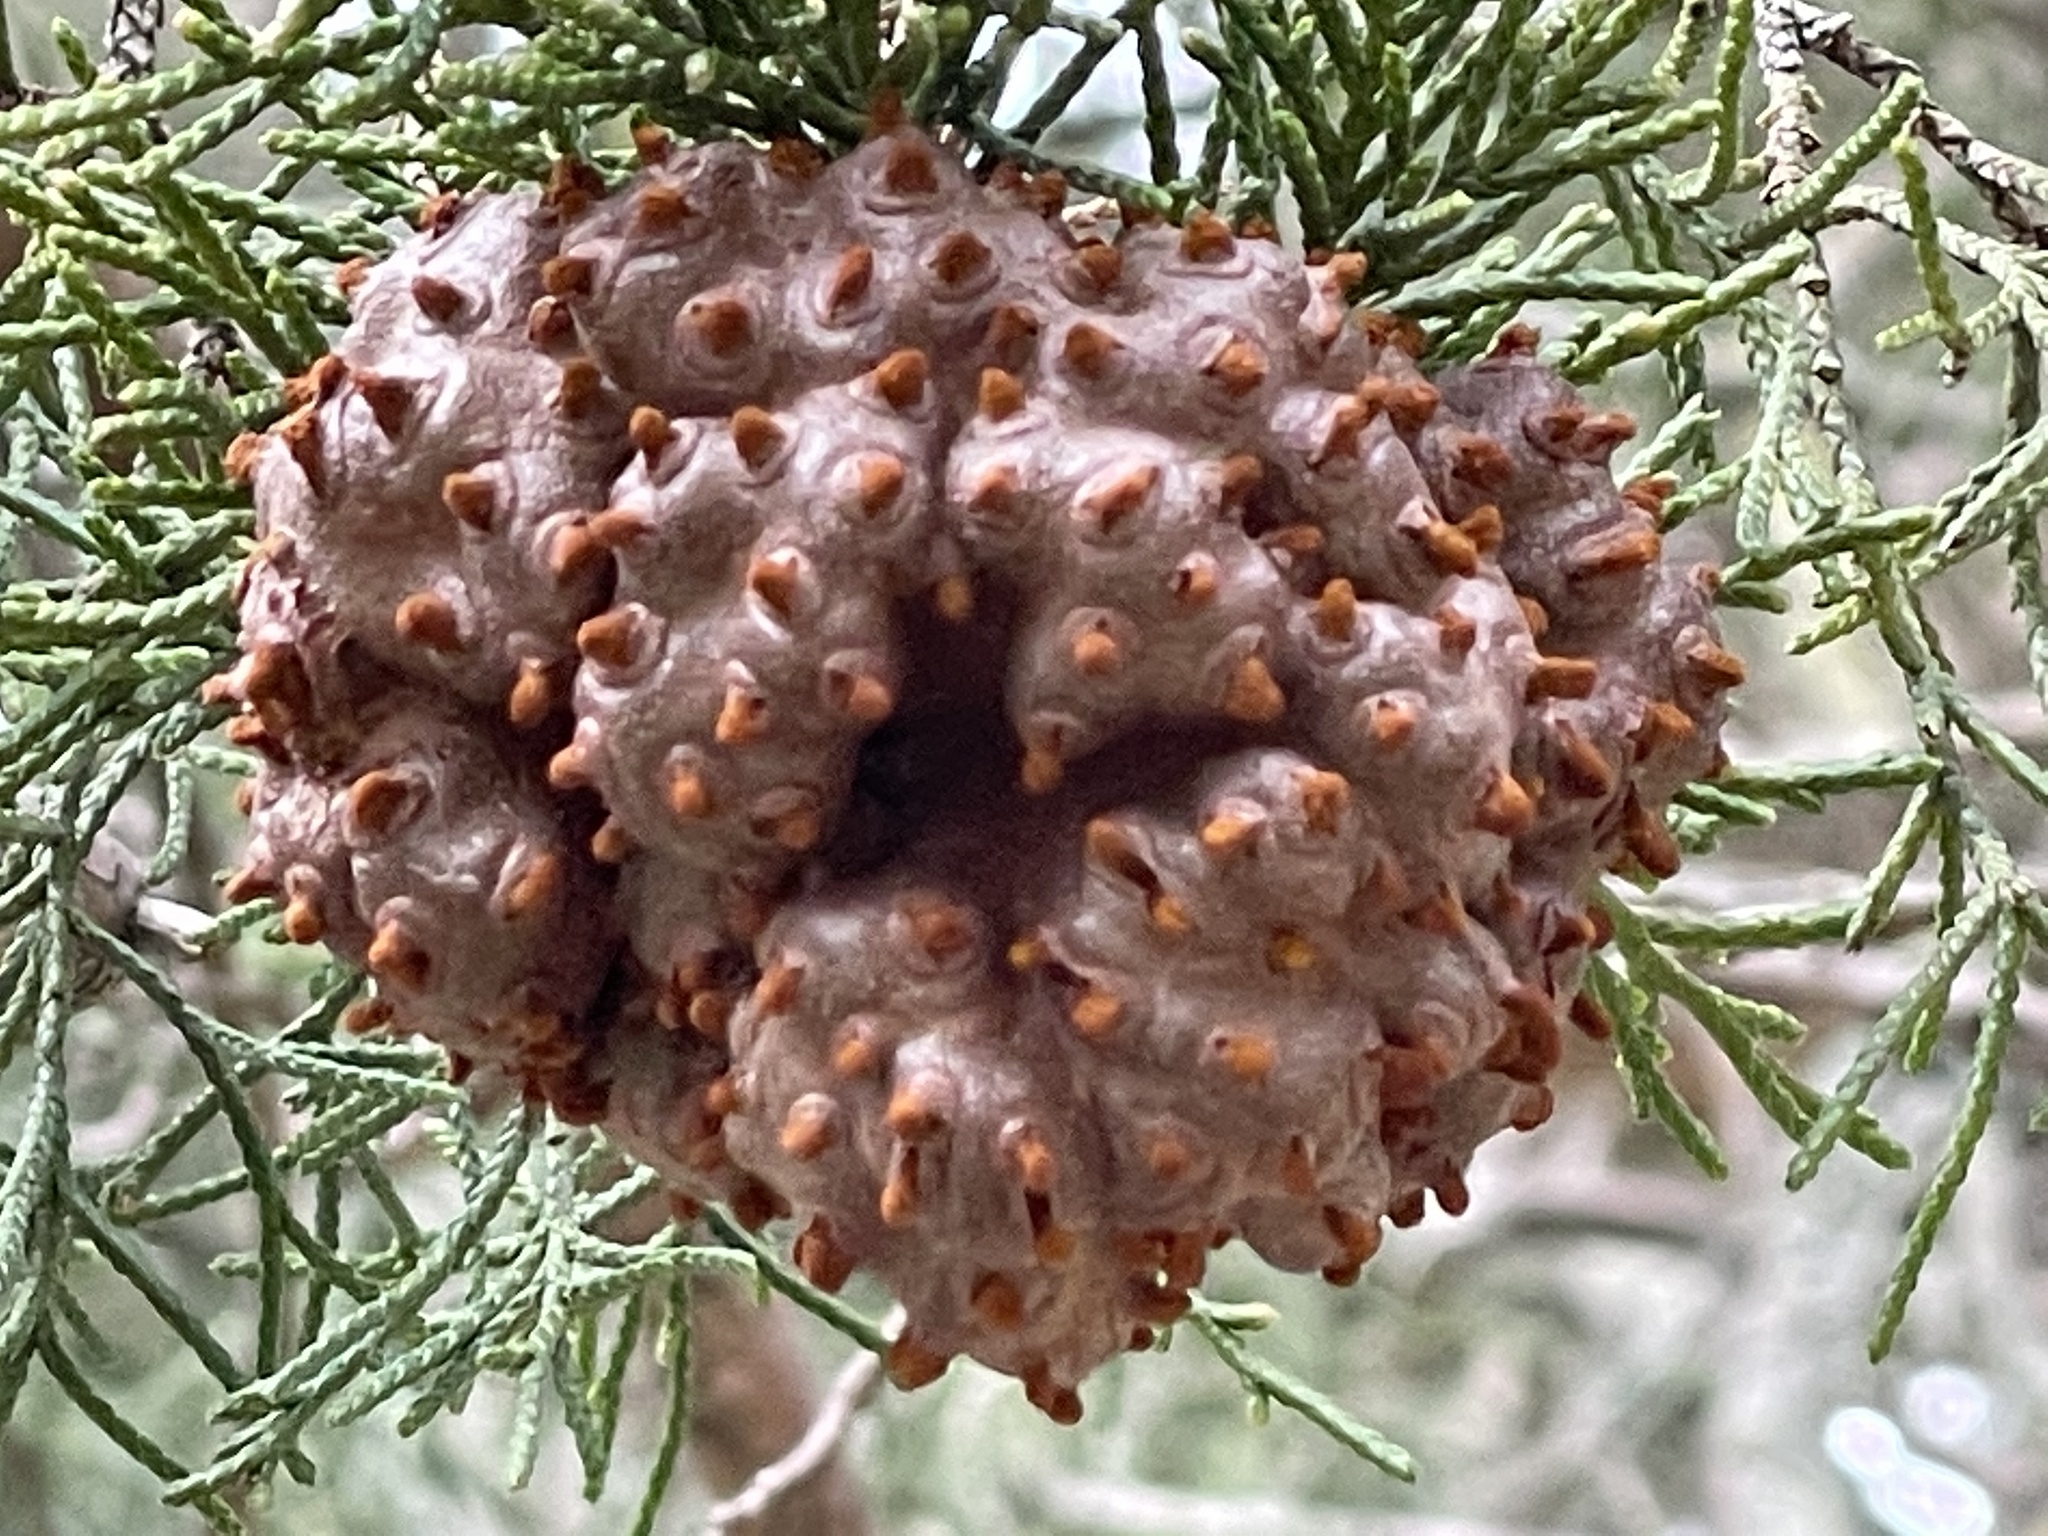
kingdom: Fungi
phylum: Basidiomycota
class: Pucciniomycetes
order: Pucciniales
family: Gymnosporangiaceae
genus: Gymnosporangium
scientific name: Gymnosporangium juniperi-virginianae
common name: Juniper-apple rust
